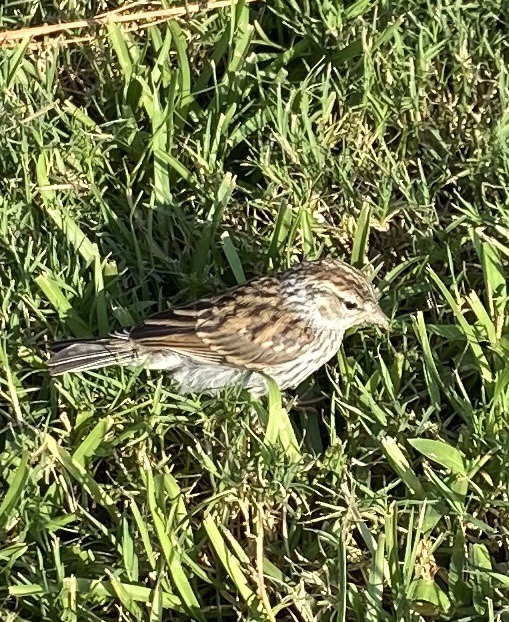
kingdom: Animalia
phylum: Chordata
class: Aves
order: Passeriformes
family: Passerellidae
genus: Spizella
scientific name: Spizella passerina
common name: Chipping sparrow
